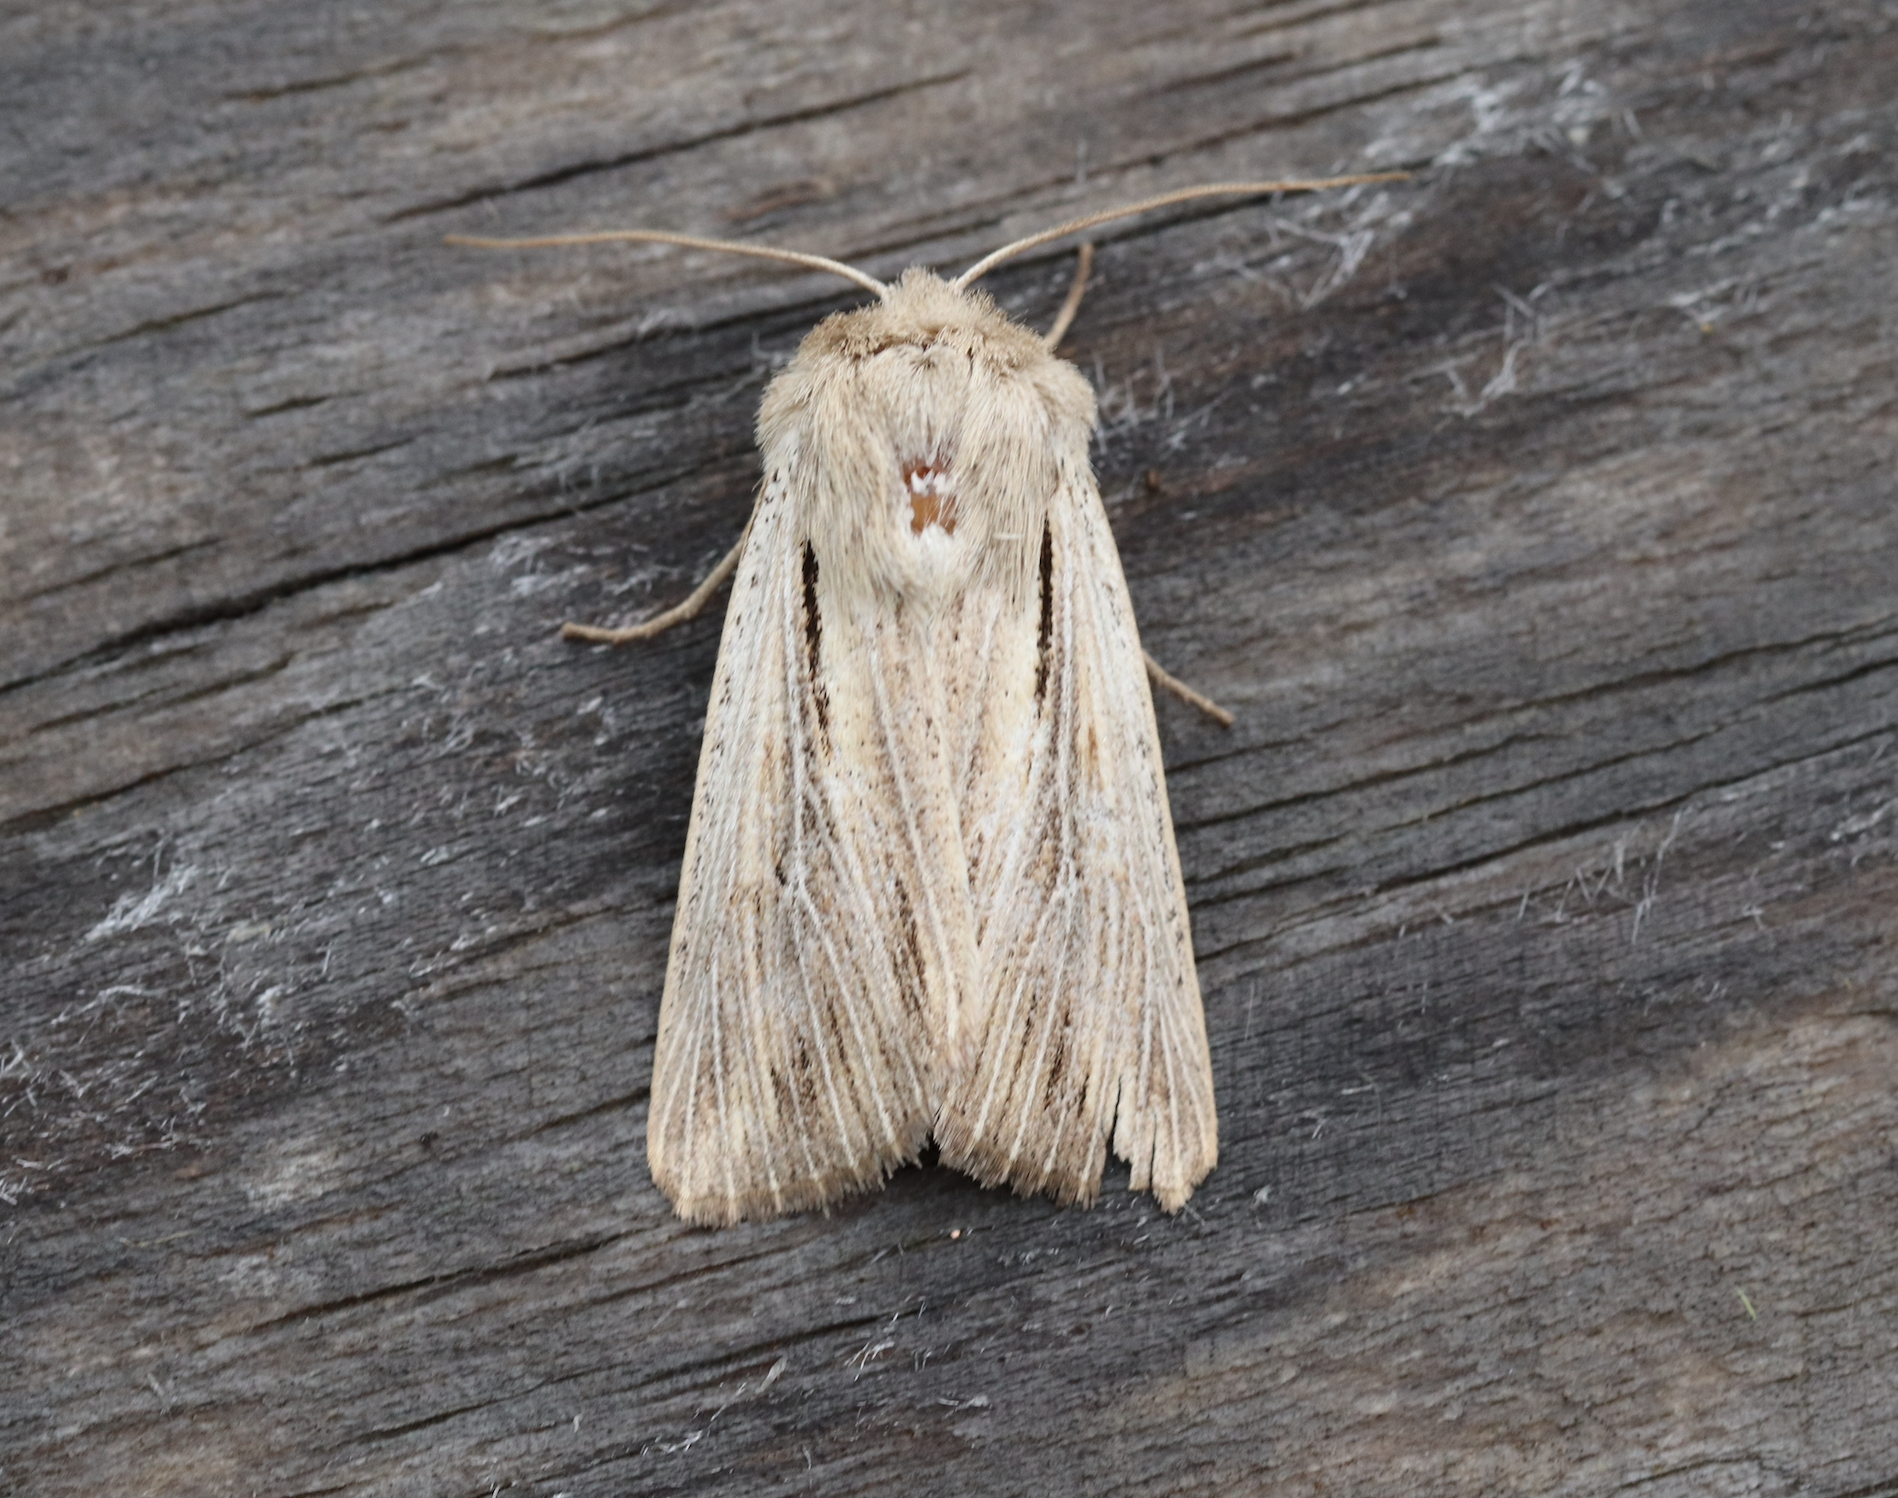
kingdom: Animalia
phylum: Arthropoda
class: Insecta
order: Lepidoptera
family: Noctuidae
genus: Leucania
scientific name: Leucania comma
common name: Shoulder-striped wainscot
